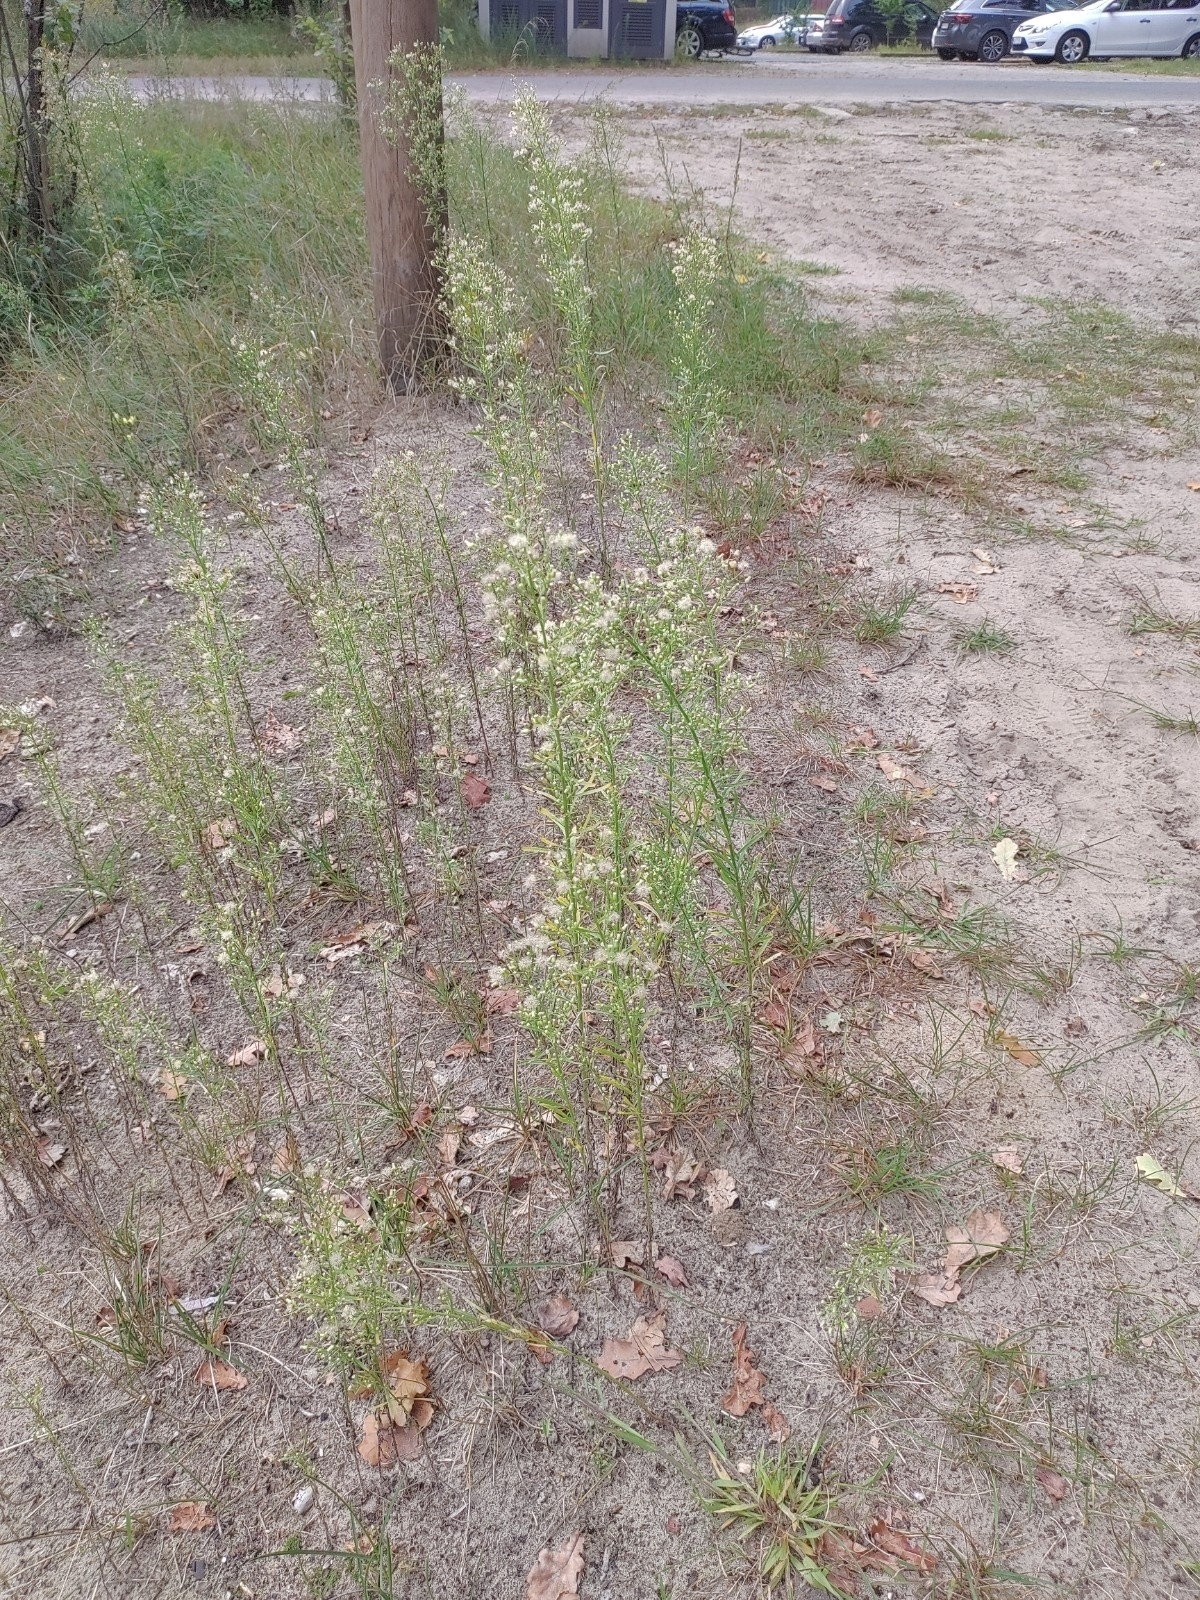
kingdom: Plantae
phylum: Tracheophyta
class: Magnoliopsida
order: Asterales
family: Asteraceae
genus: Erigeron
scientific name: Erigeron canadensis
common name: Canadian fleabane
